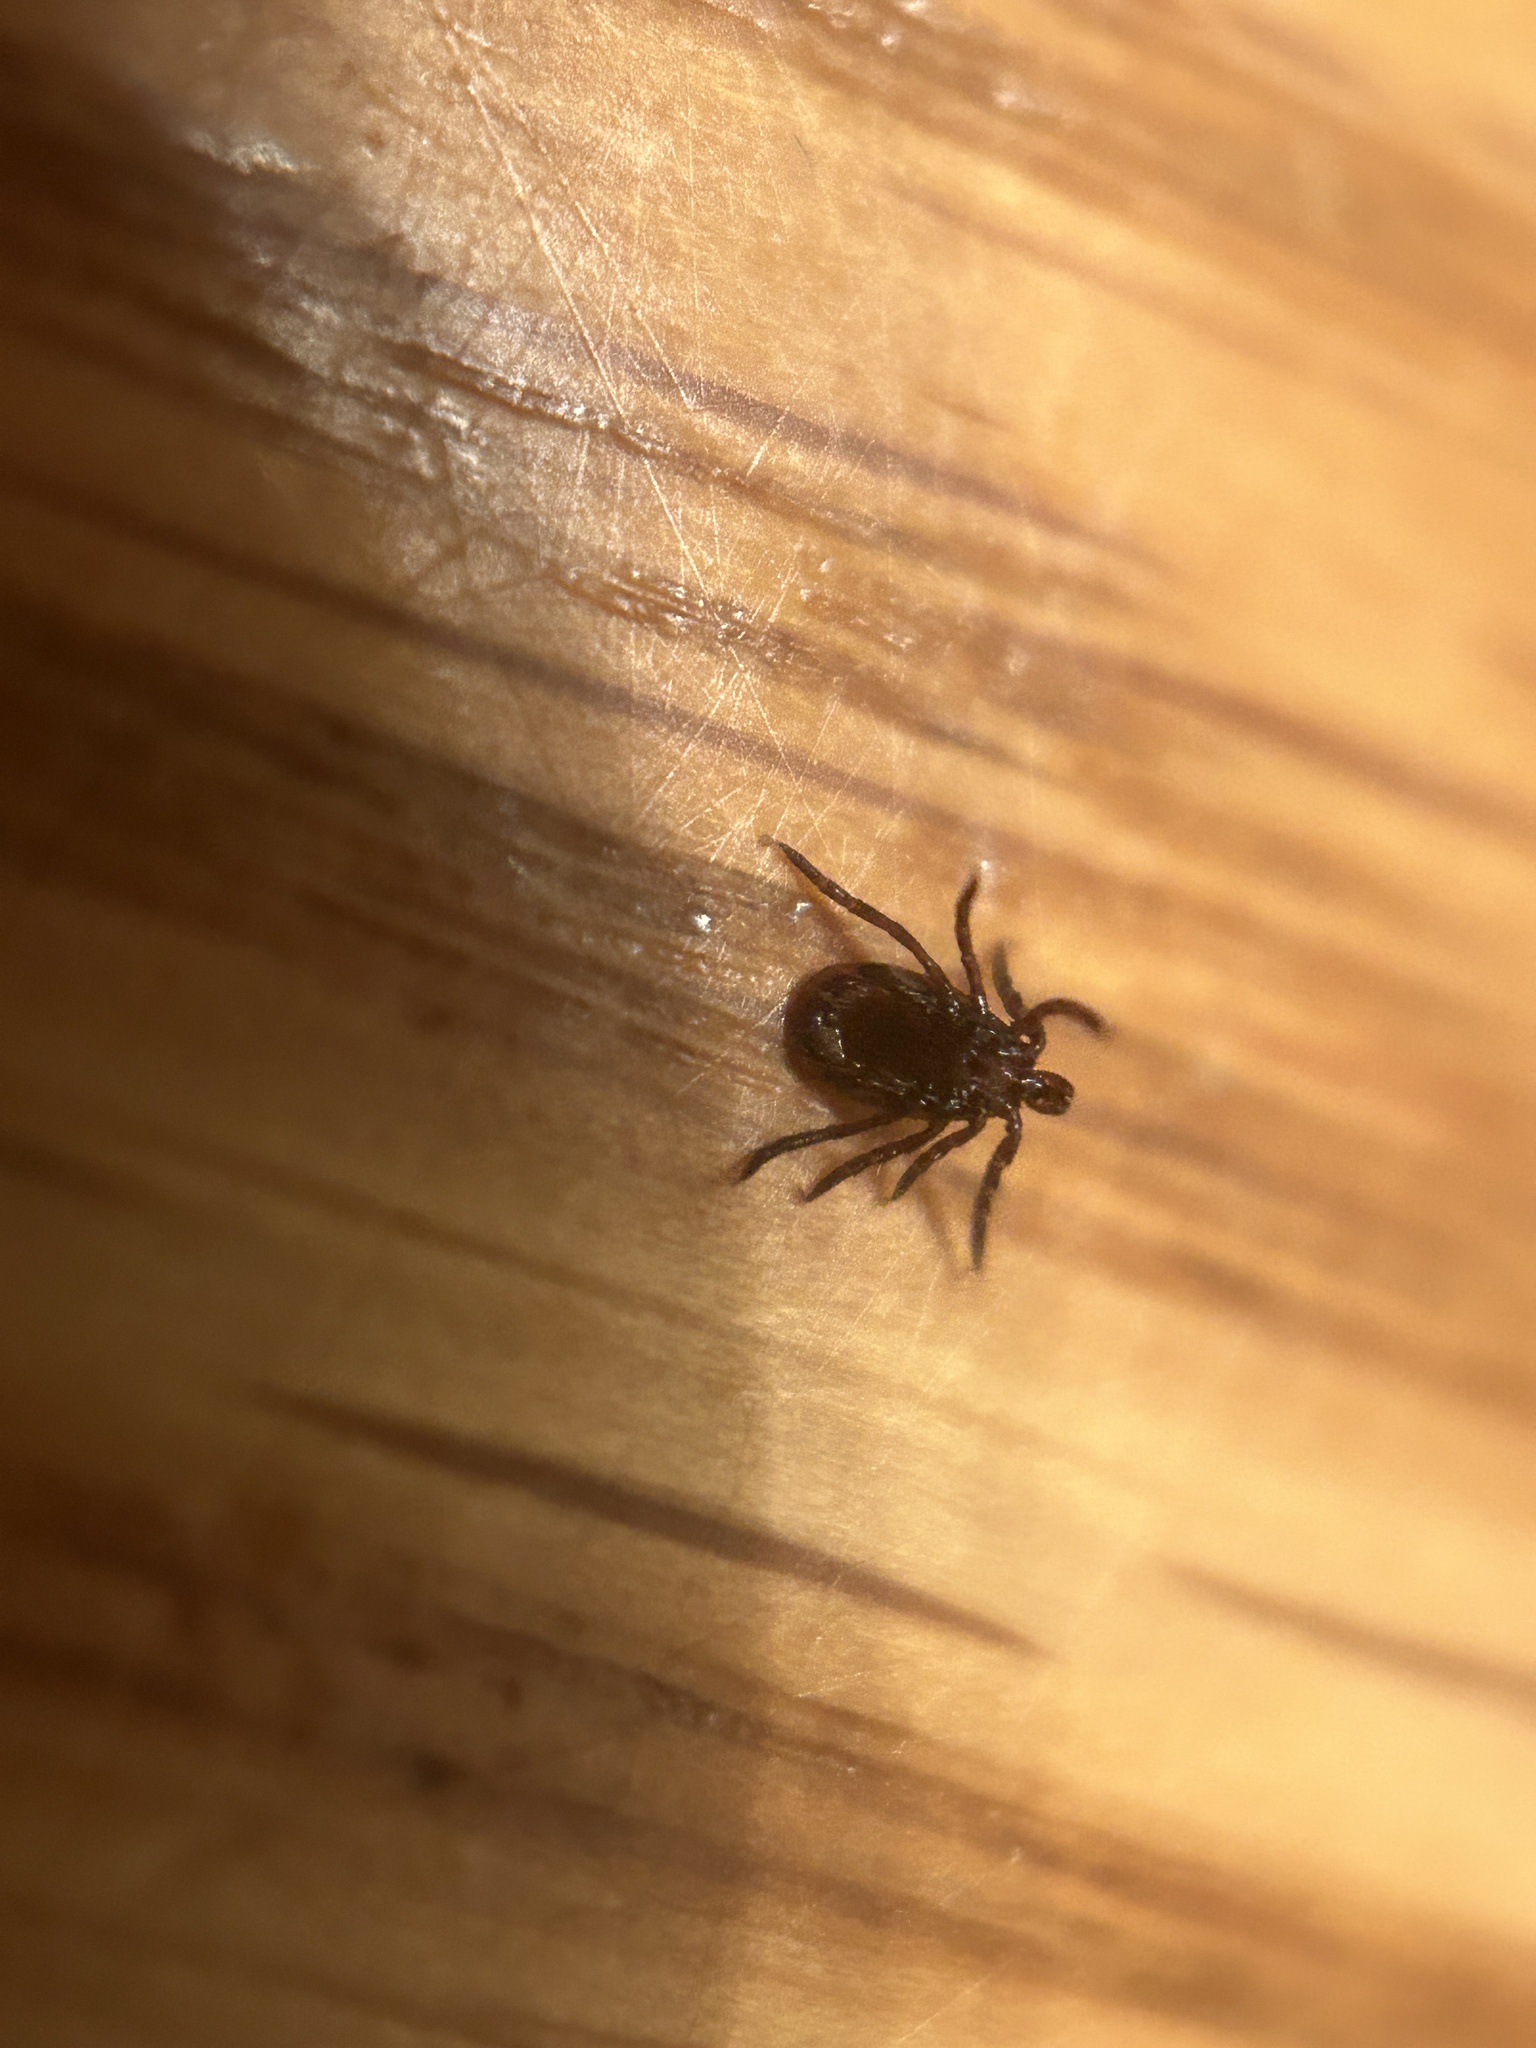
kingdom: Animalia
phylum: Arthropoda
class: Arachnida
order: Ixodida
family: Ixodidae
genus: Ixodes
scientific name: Ixodes scapularis
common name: Black legged tick
